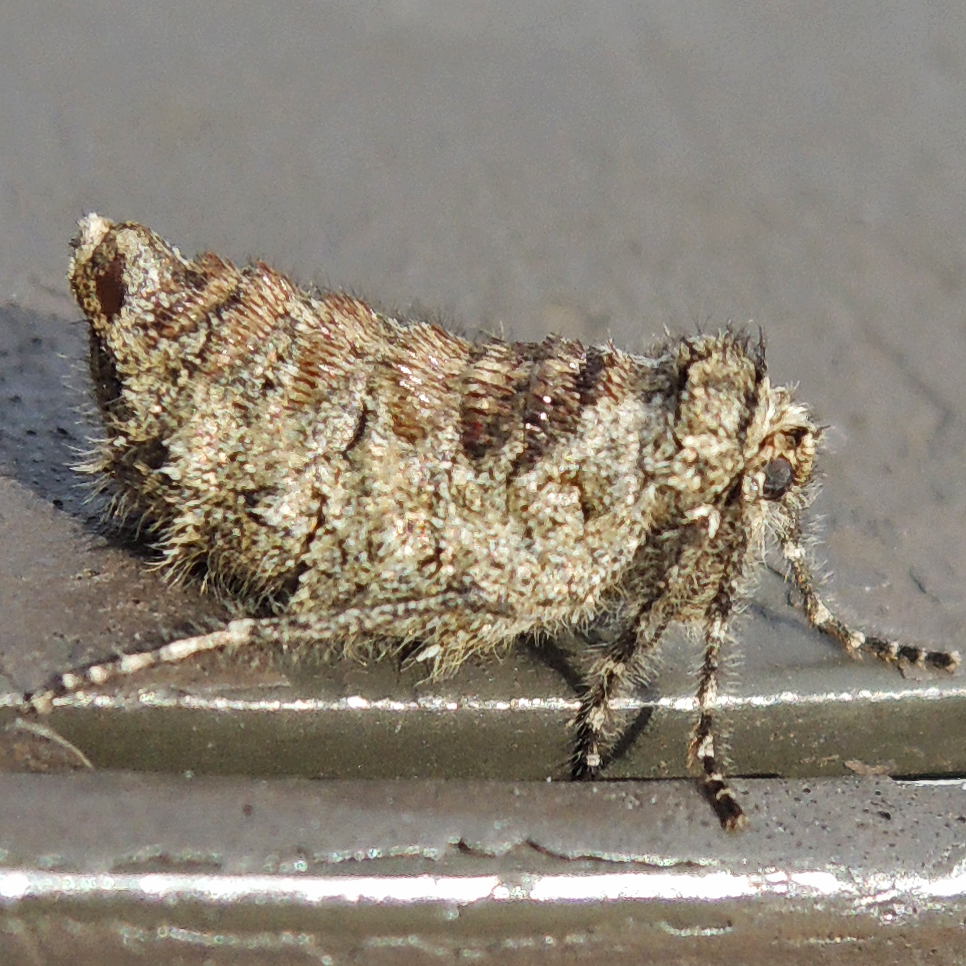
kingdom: Animalia
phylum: Arthropoda
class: Insecta
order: Lepidoptera
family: Geometridae
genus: Paleacrita
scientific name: Paleacrita vernata
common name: Spring cankerworm
